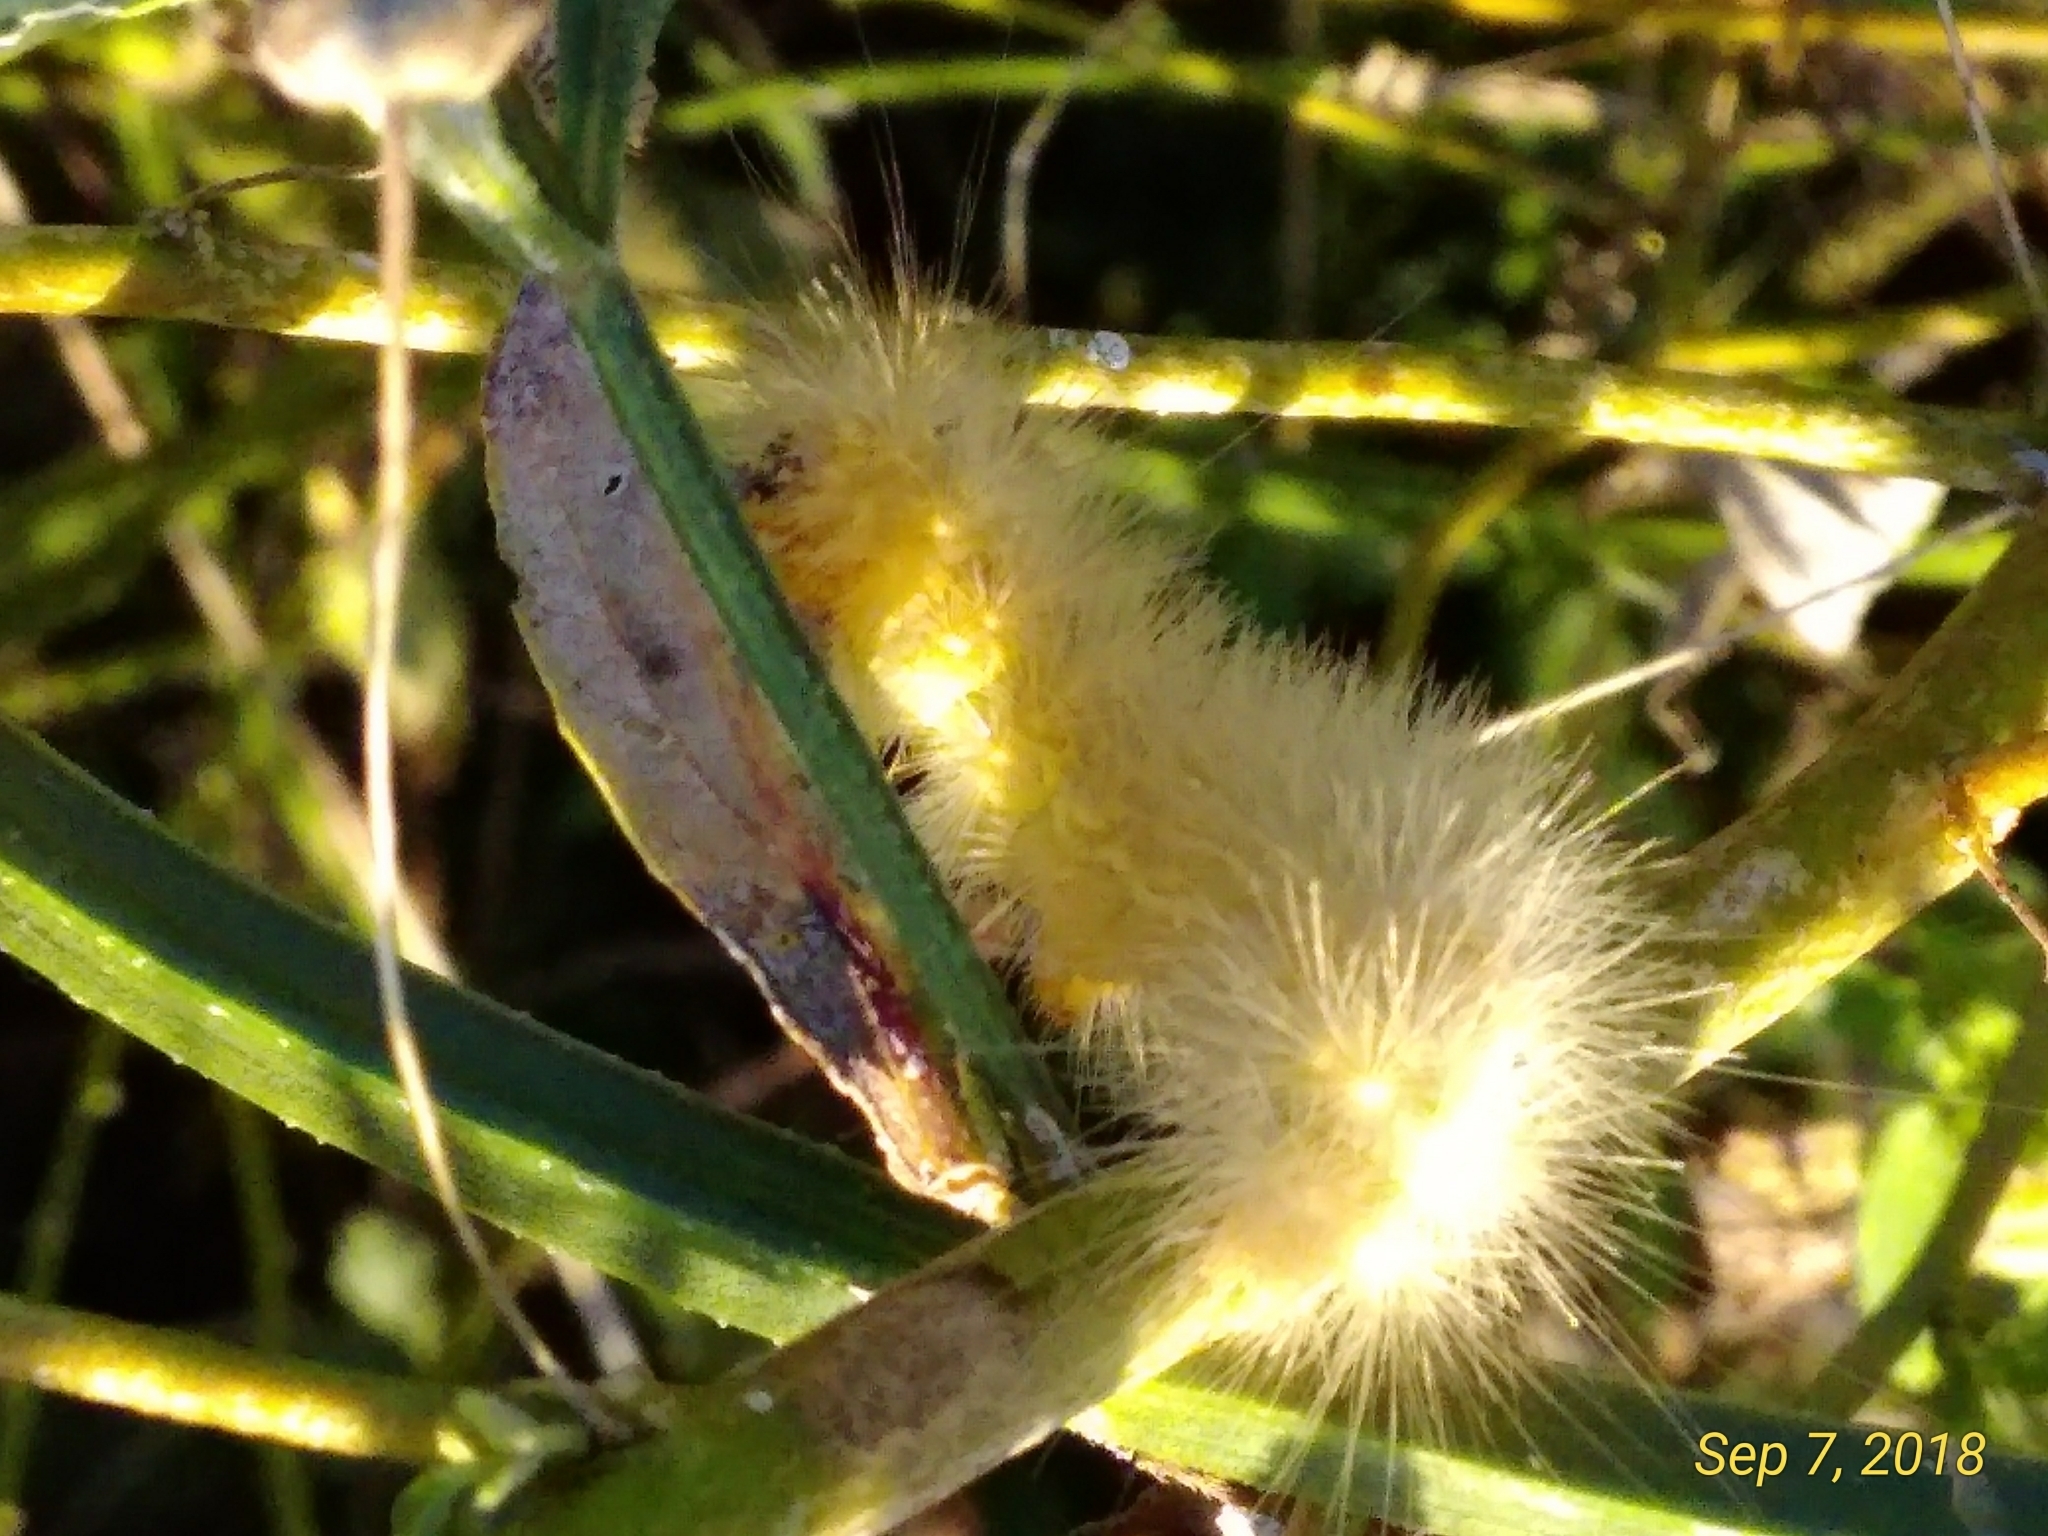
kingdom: Animalia
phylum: Arthropoda
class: Insecta
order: Lepidoptera
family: Erebidae
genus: Spilosoma
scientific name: Spilosoma virginica
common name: Virginia tiger moth
